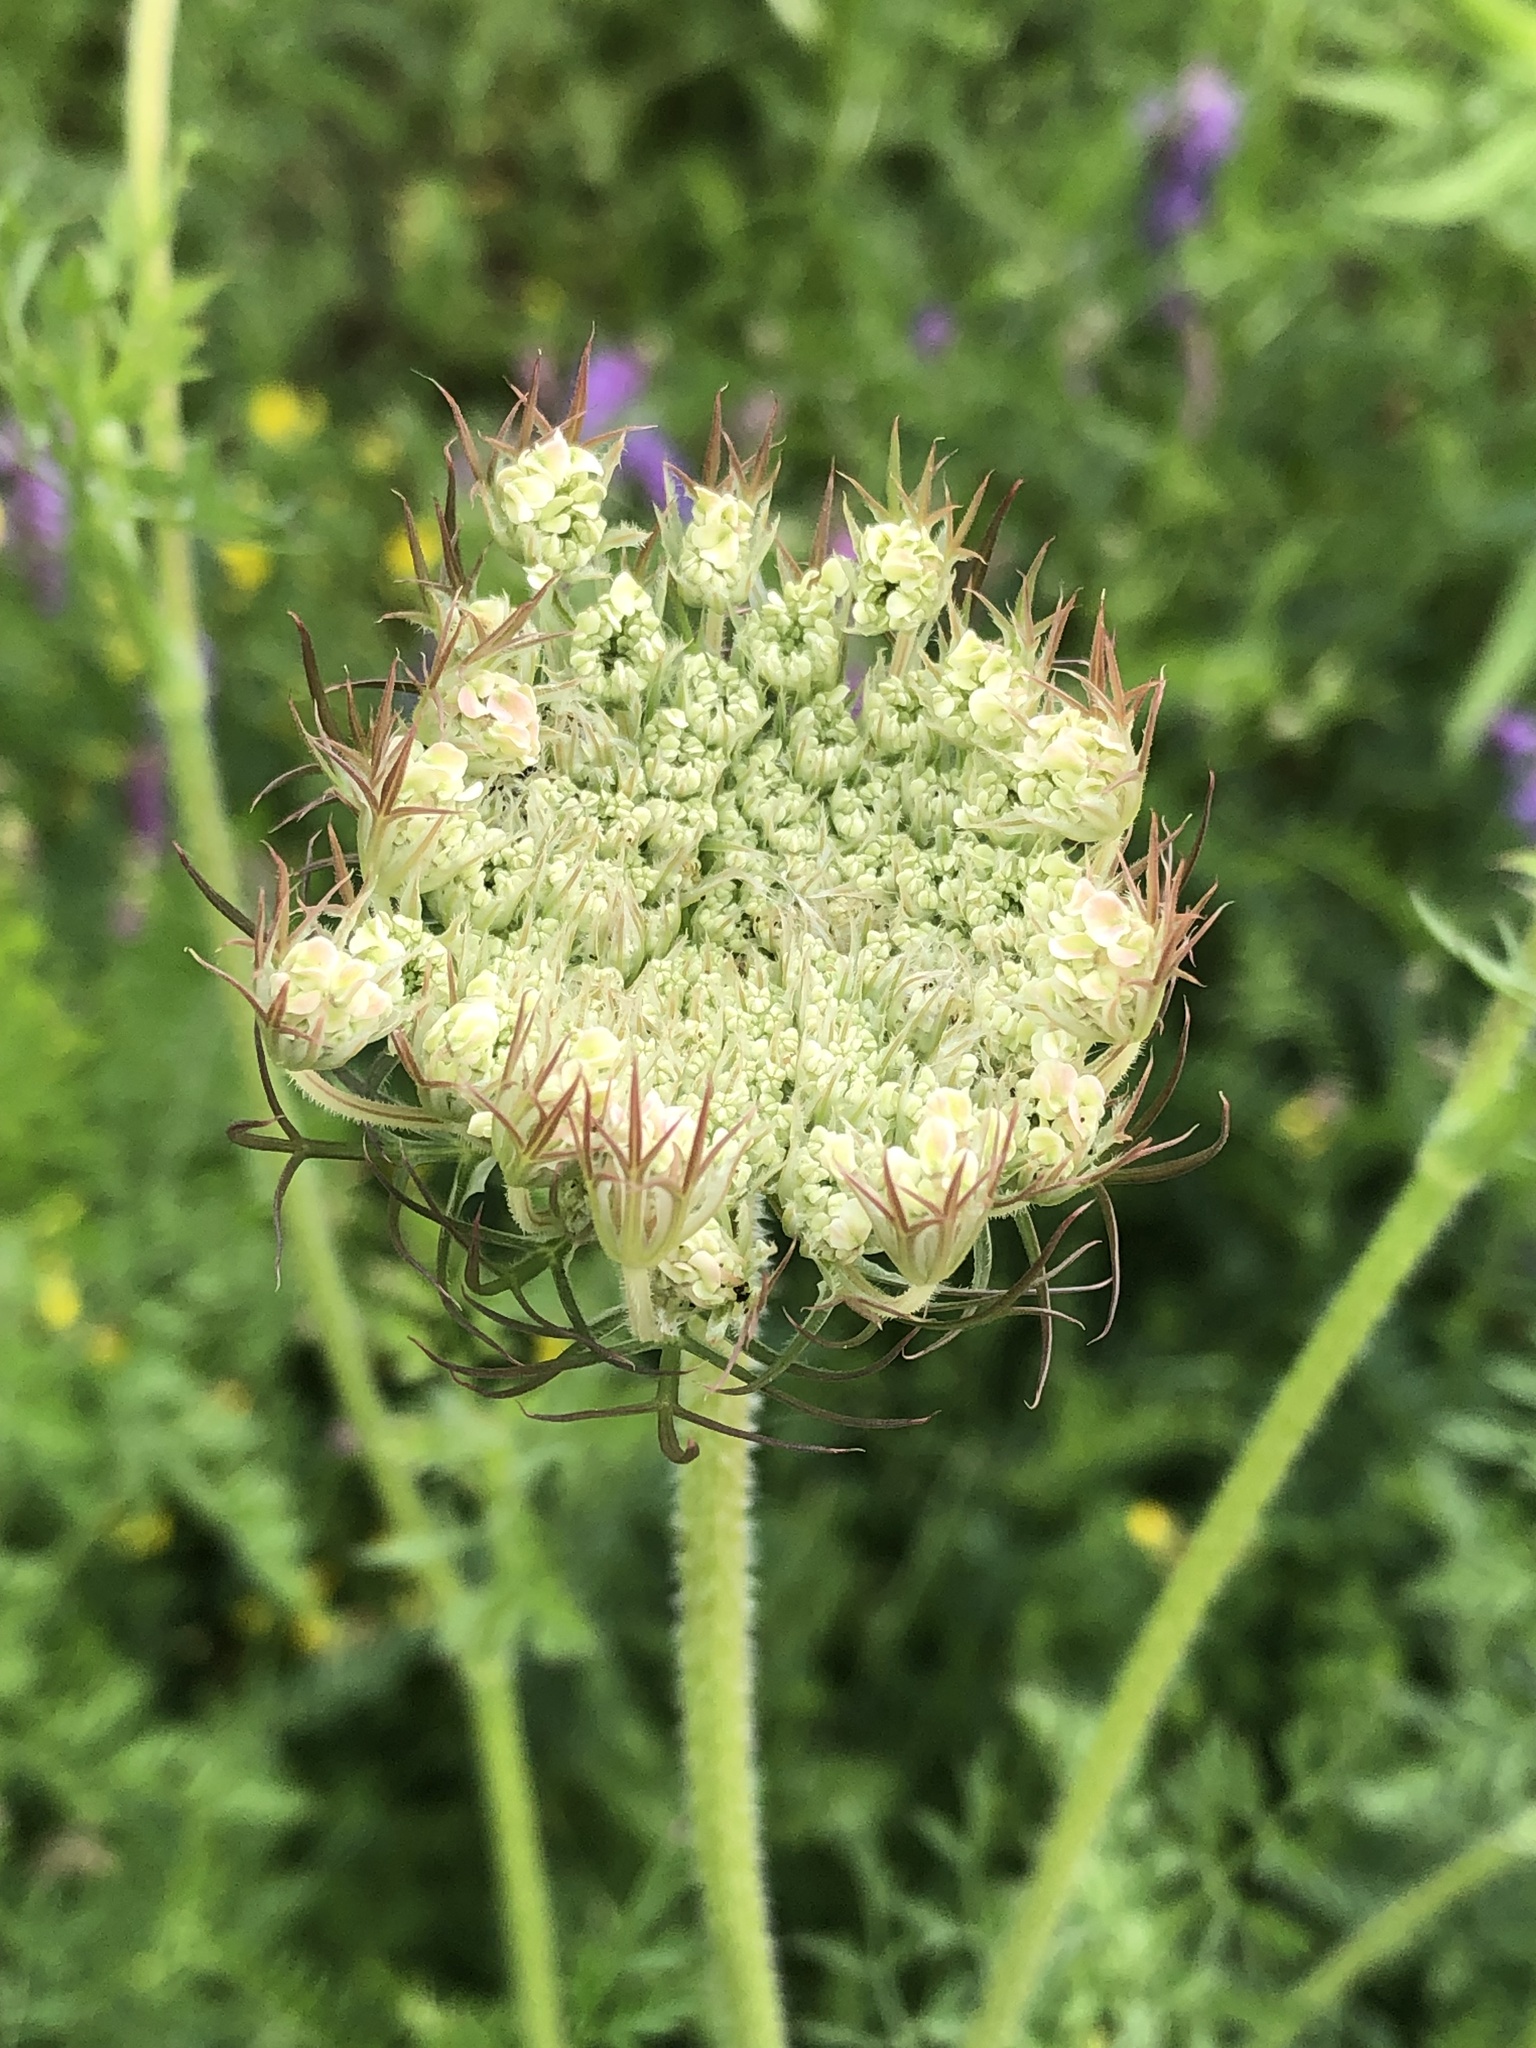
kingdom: Plantae
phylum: Tracheophyta
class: Magnoliopsida
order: Apiales
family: Apiaceae
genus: Daucus
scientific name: Daucus carota
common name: Wild carrot
